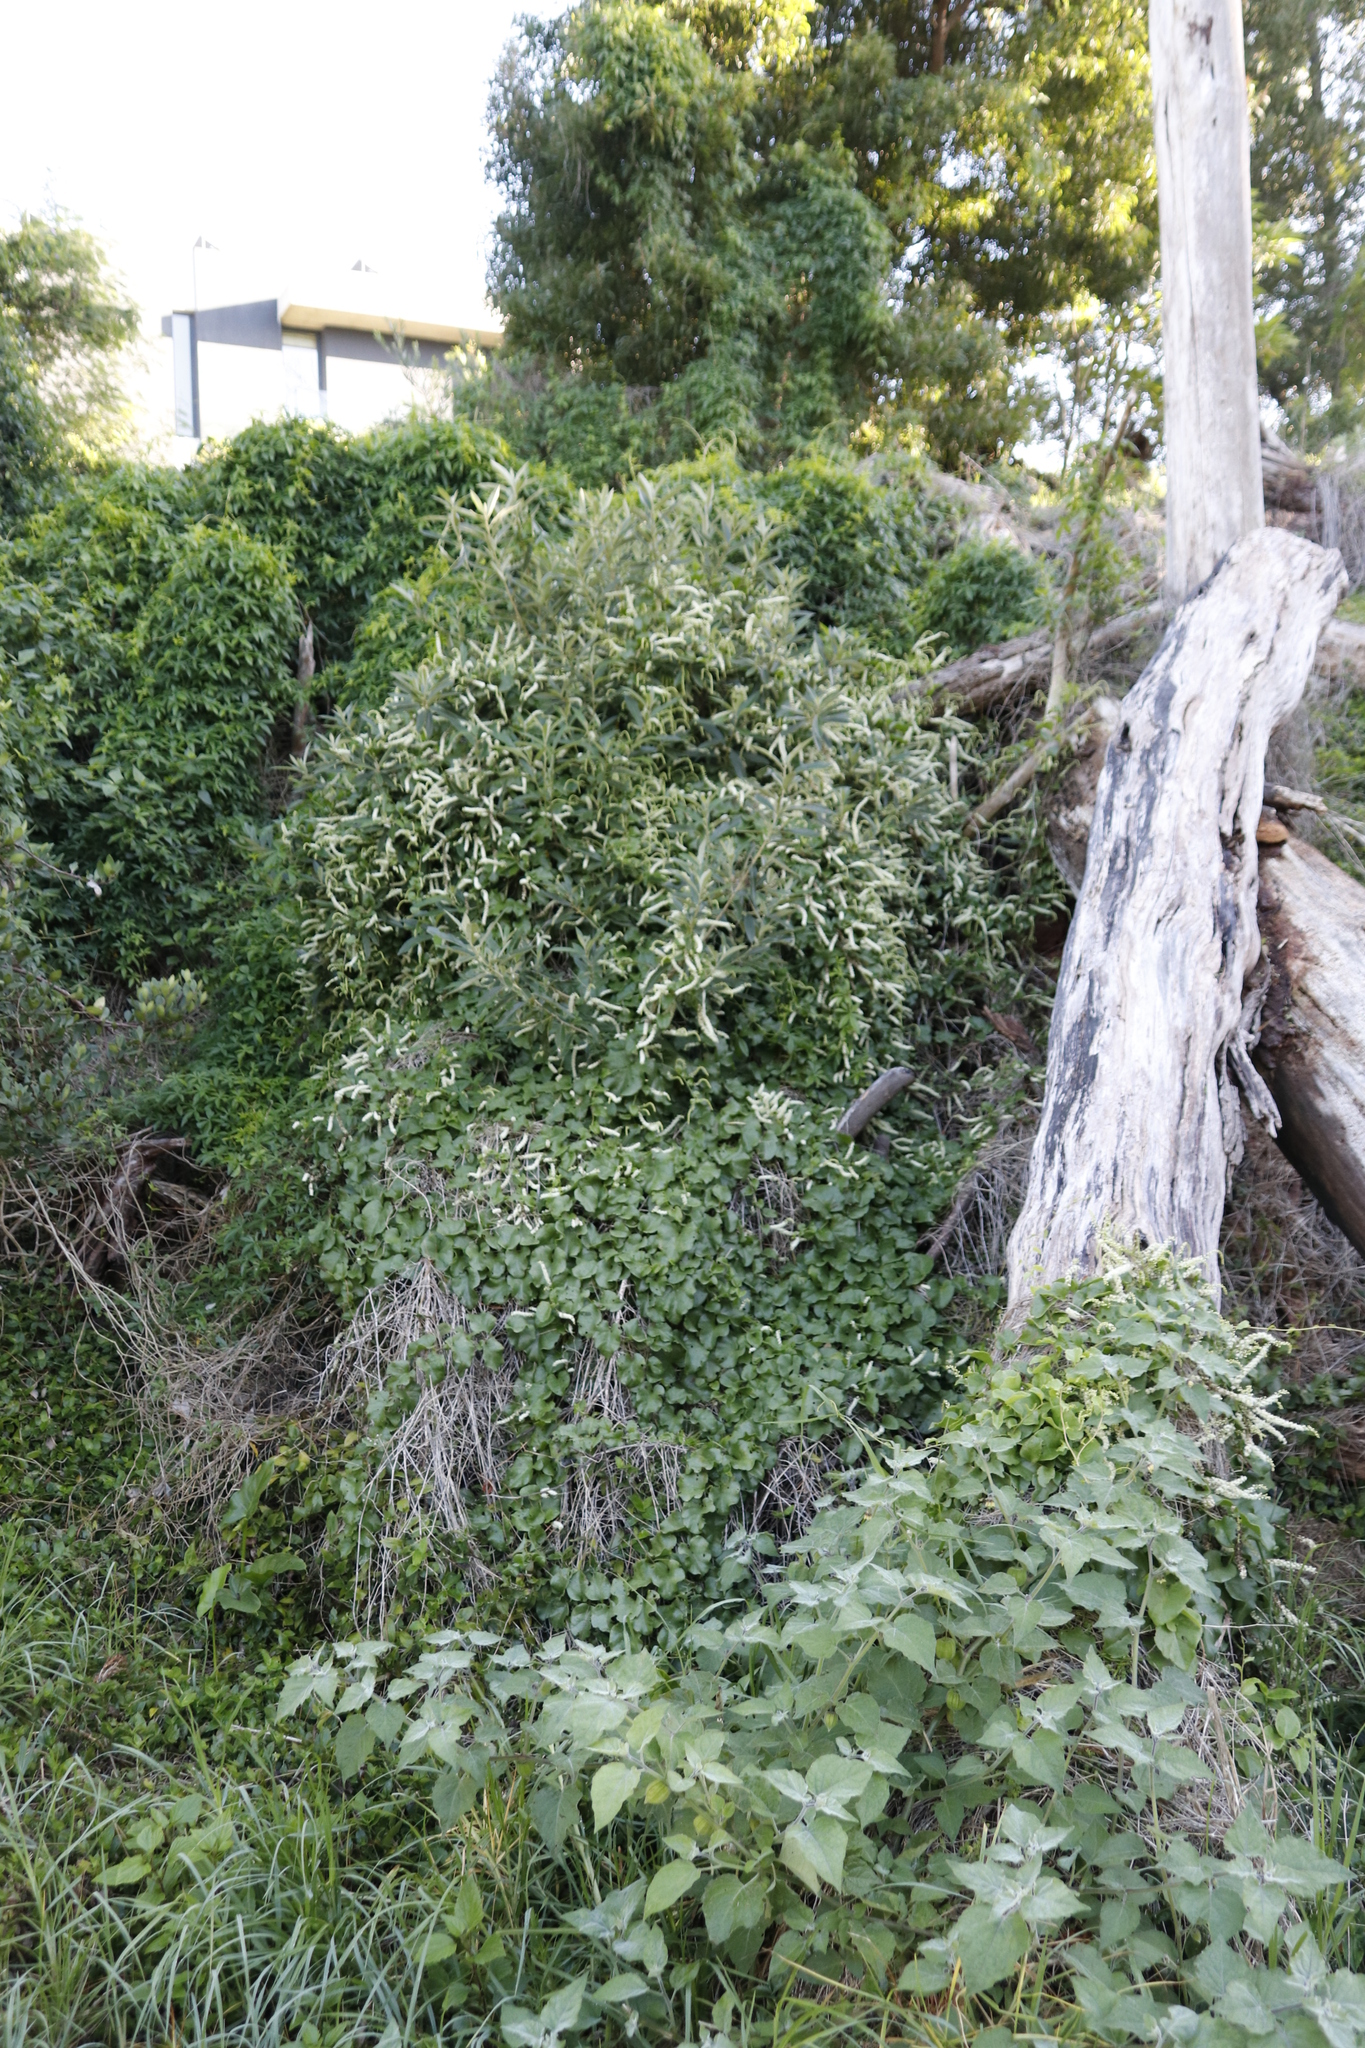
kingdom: Plantae
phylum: Tracheophyta
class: Magnoliopsida
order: Caryophyllales
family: Basellaceae
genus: Anredera
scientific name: Anredera cordifolia
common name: Heartleaf madeiravine
